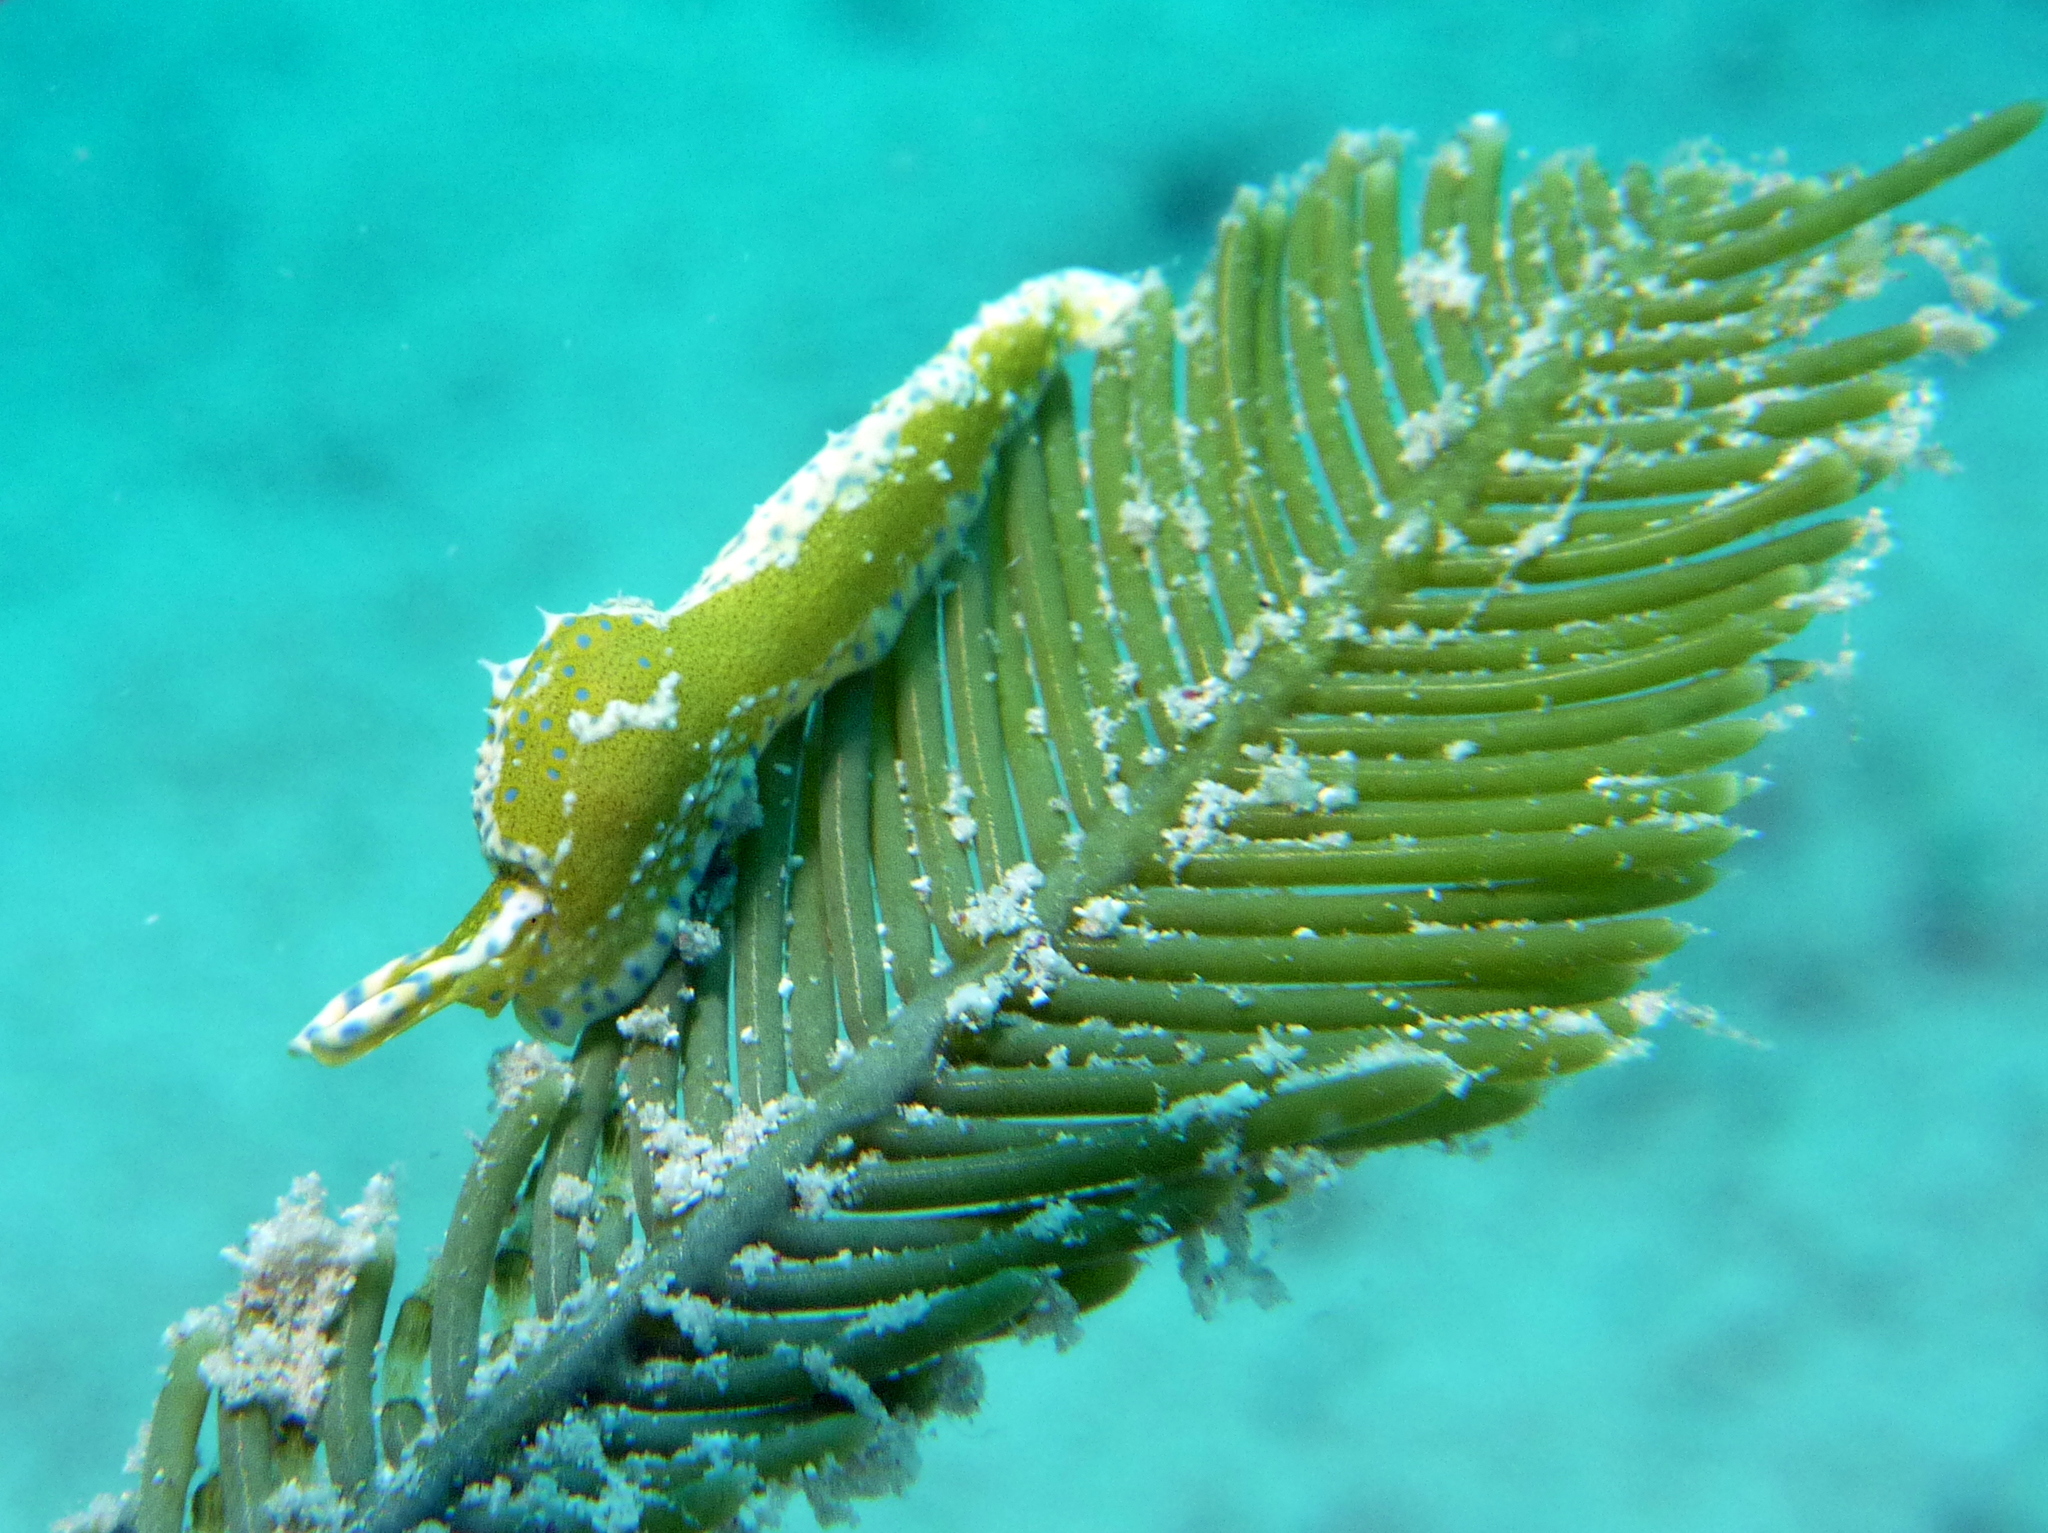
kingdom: Animalia
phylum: Mollusca
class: Gastropoda
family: Oxynoidae
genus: Oxynoe
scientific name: Oxynoe viridis
